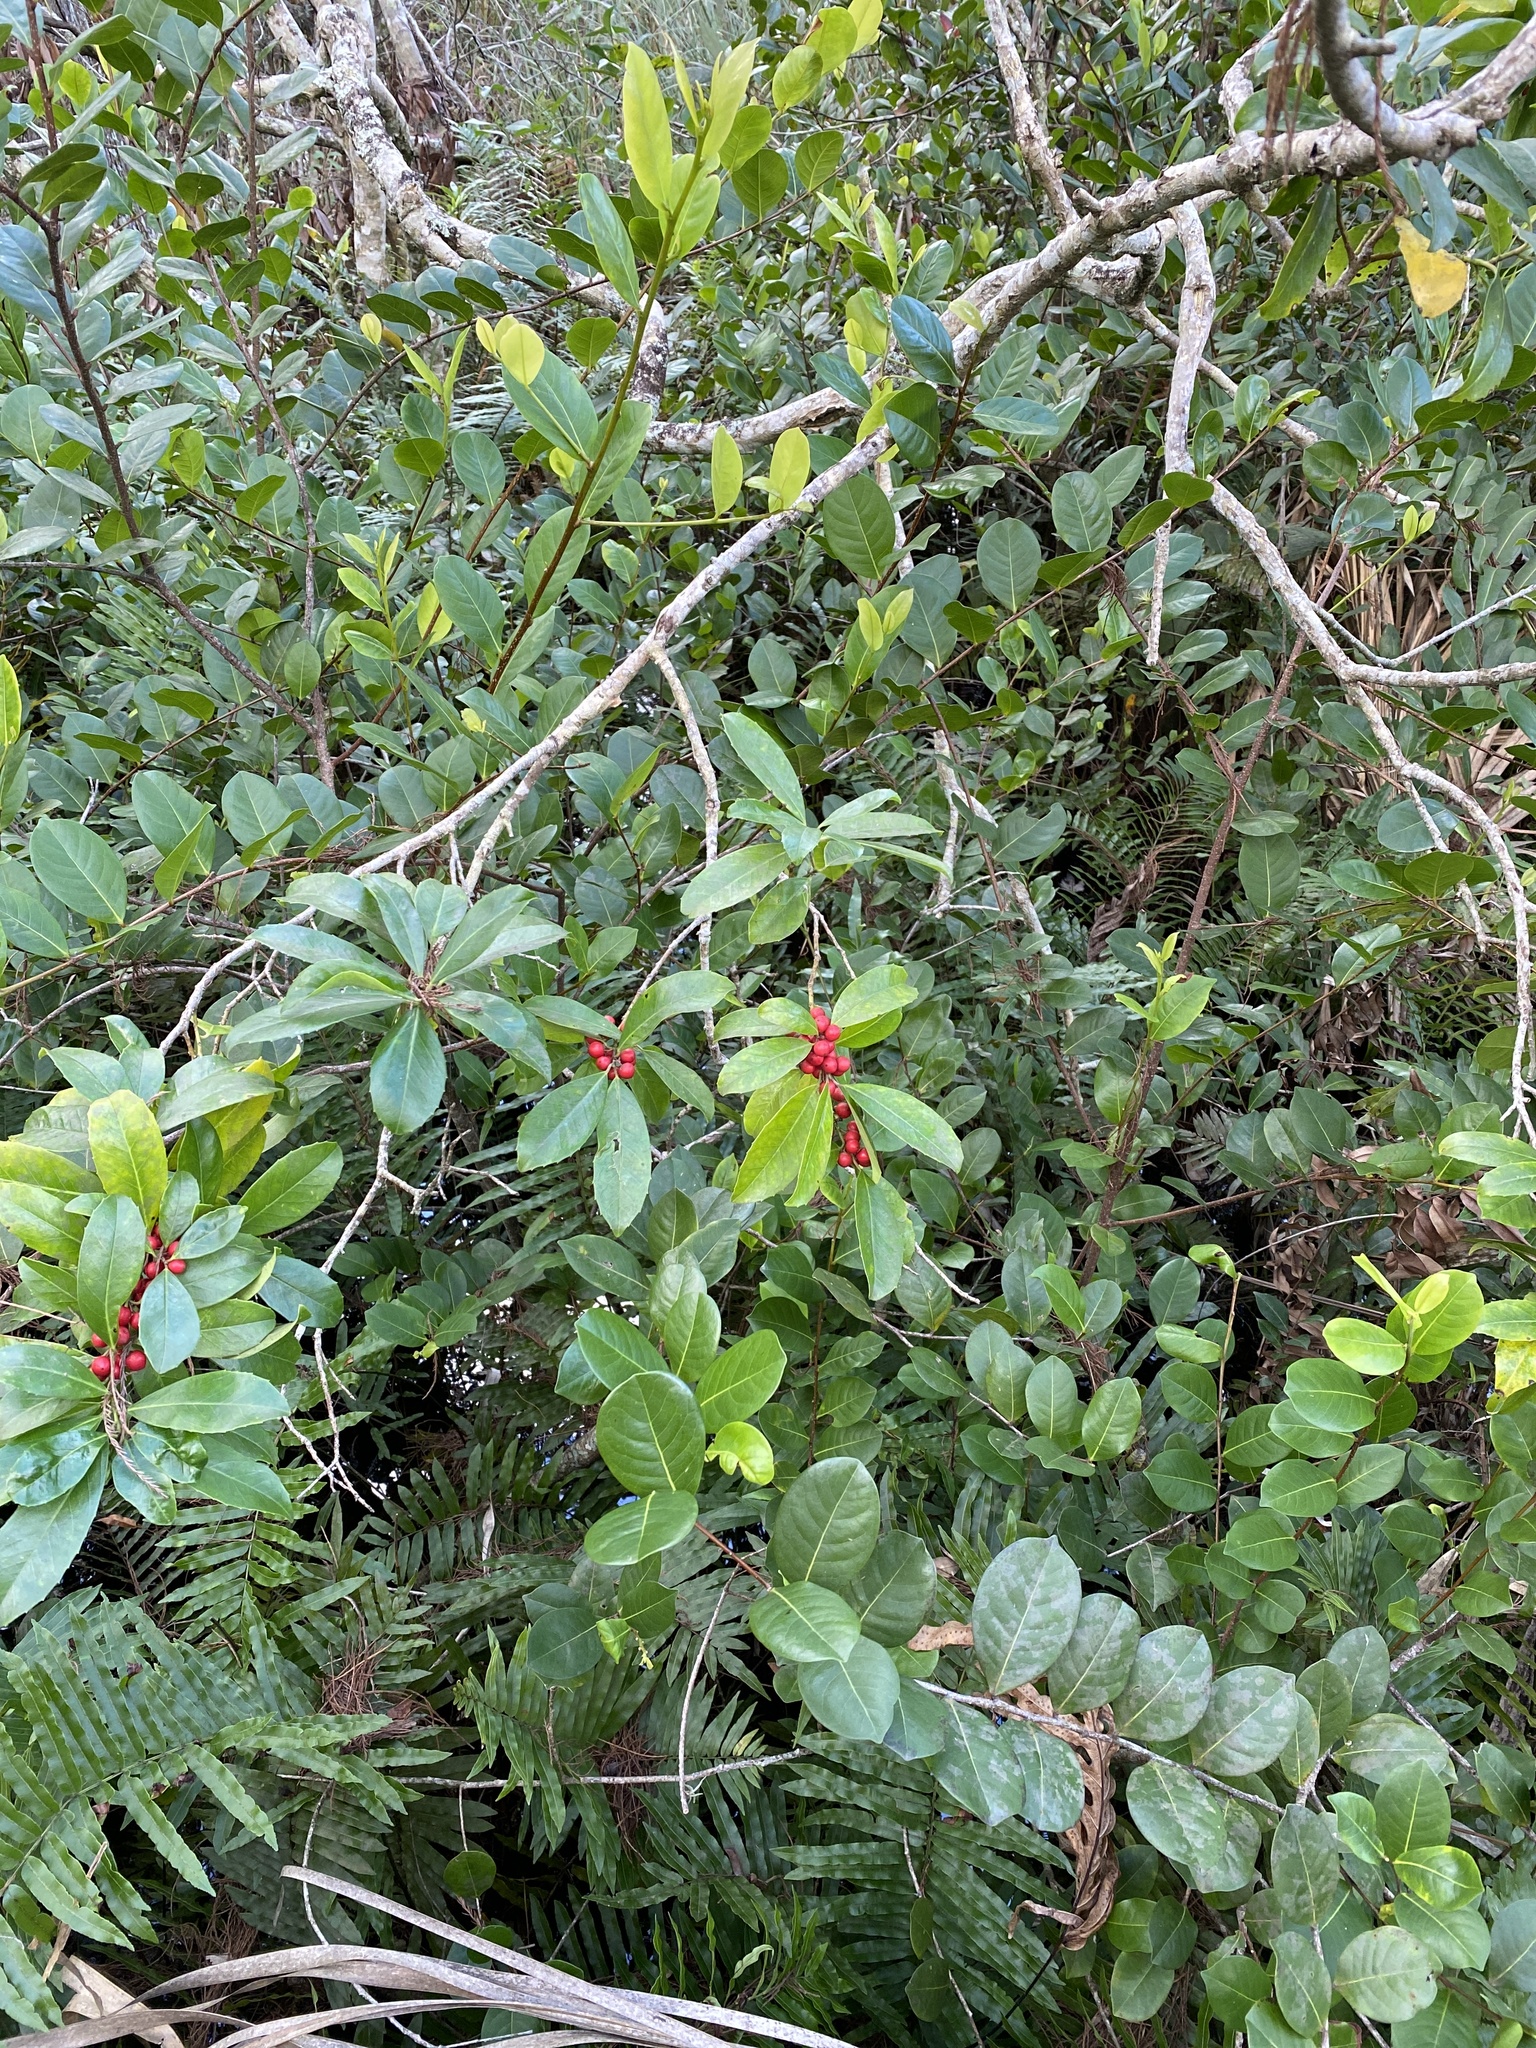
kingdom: Plantae
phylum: Tracheophyta
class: Magnoliopsida
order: Aquifoliales
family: Aquifoliaceae
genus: Ilex
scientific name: Ilex cassine
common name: Dahoon
